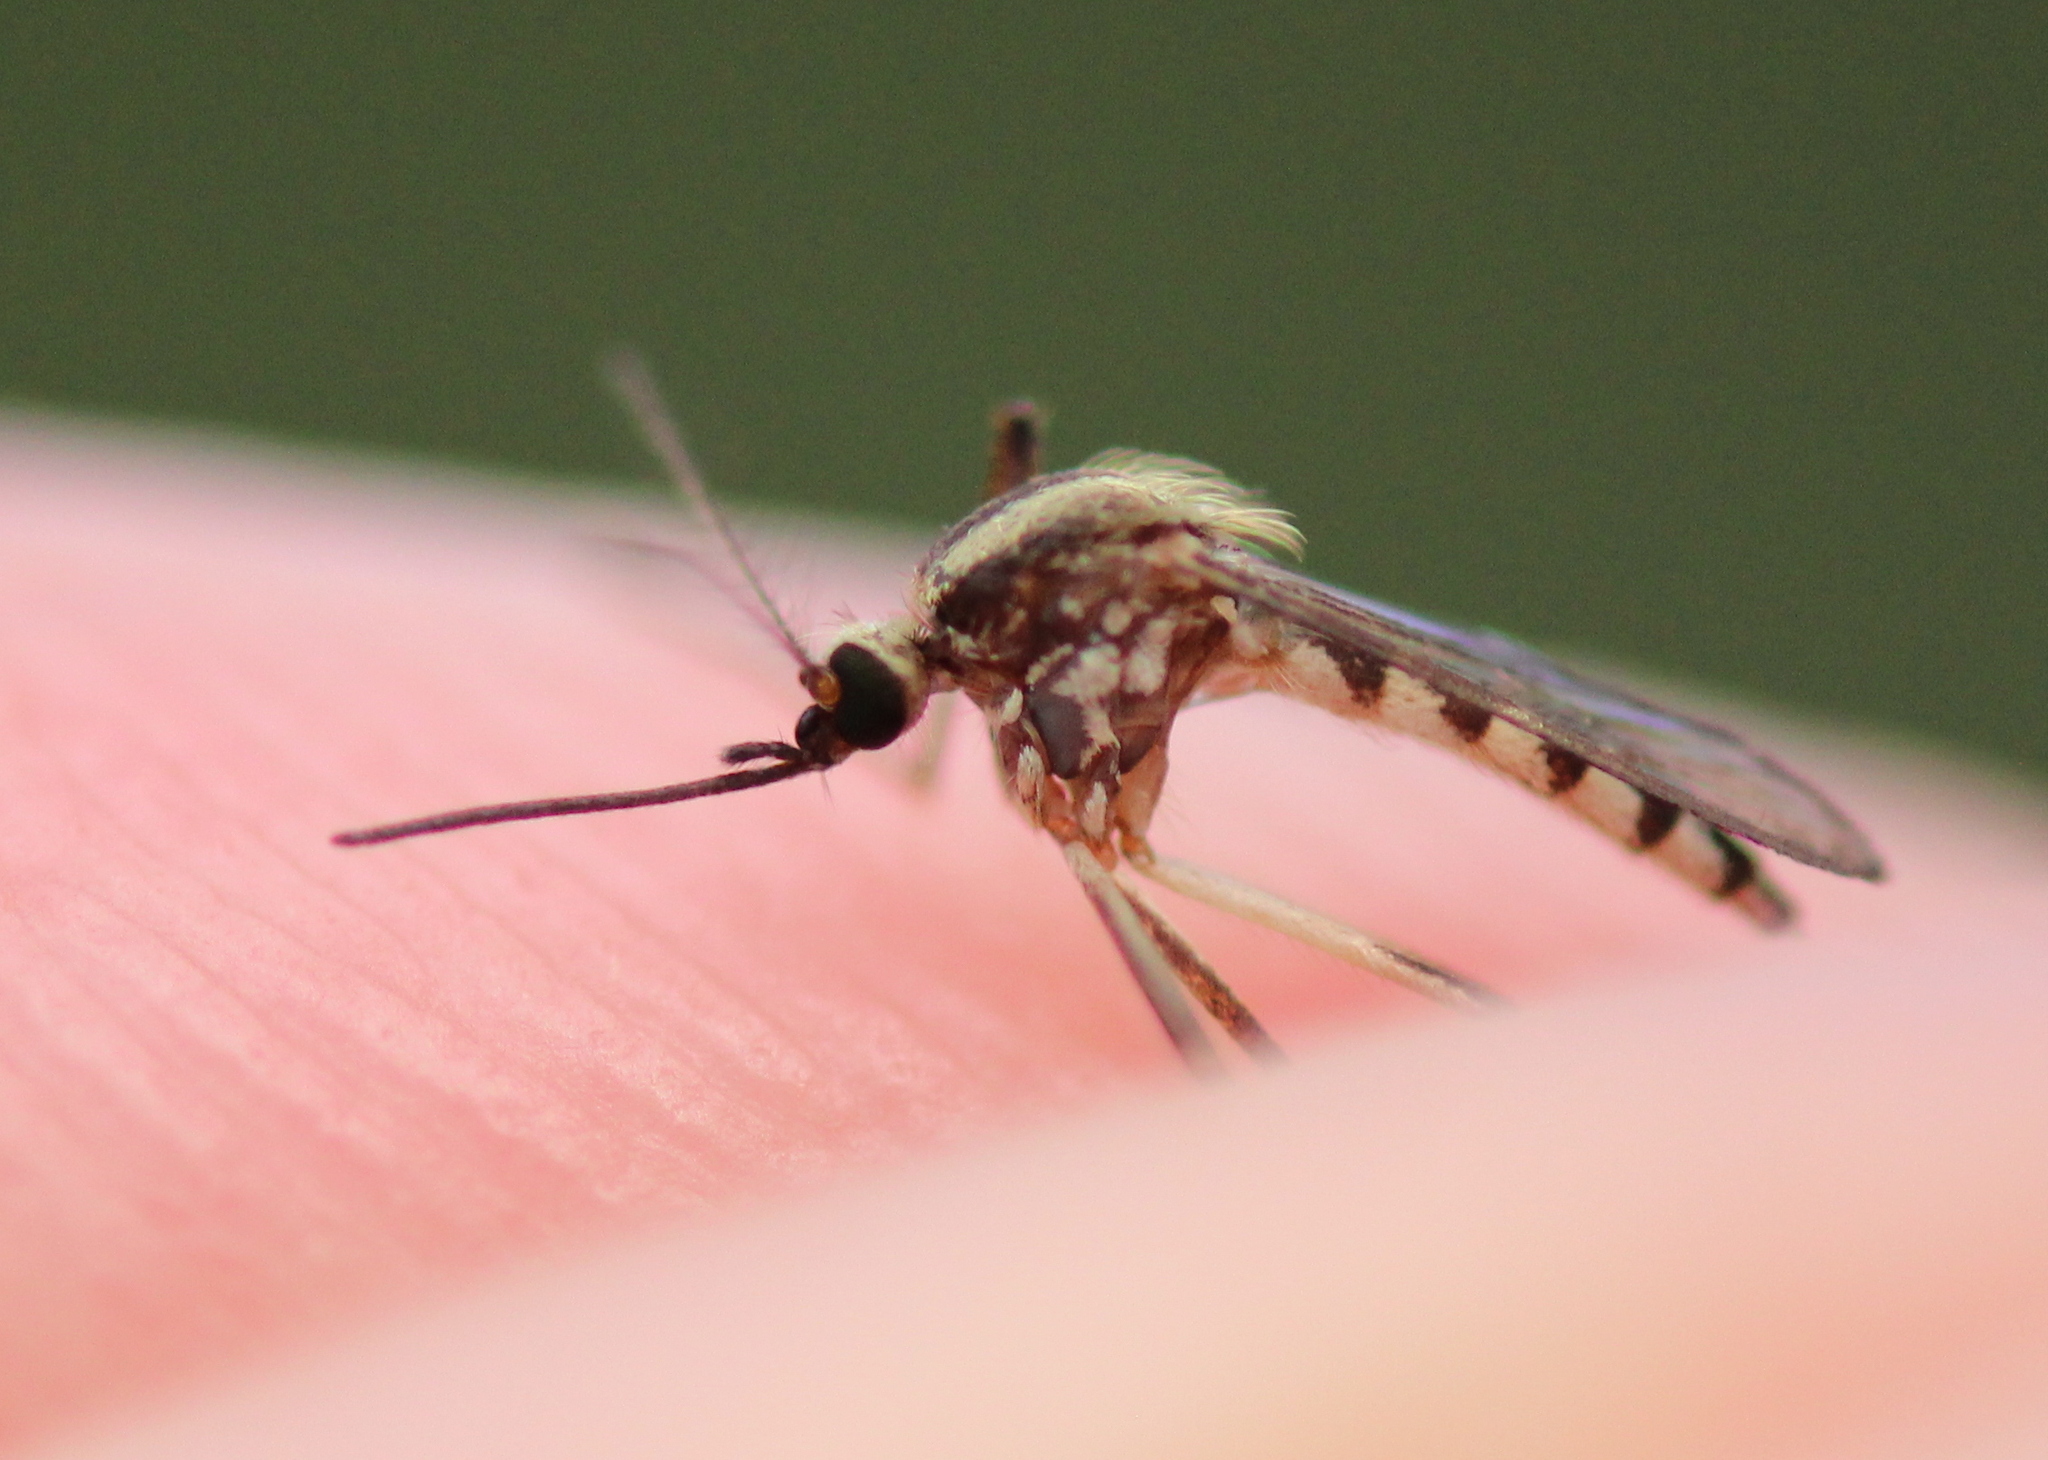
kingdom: Animalia
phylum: Arthropoda
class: Insecta
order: Diptera
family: Culicidae
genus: Aedes
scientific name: Aedes trivittatus
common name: Plains floodwater mosquito
